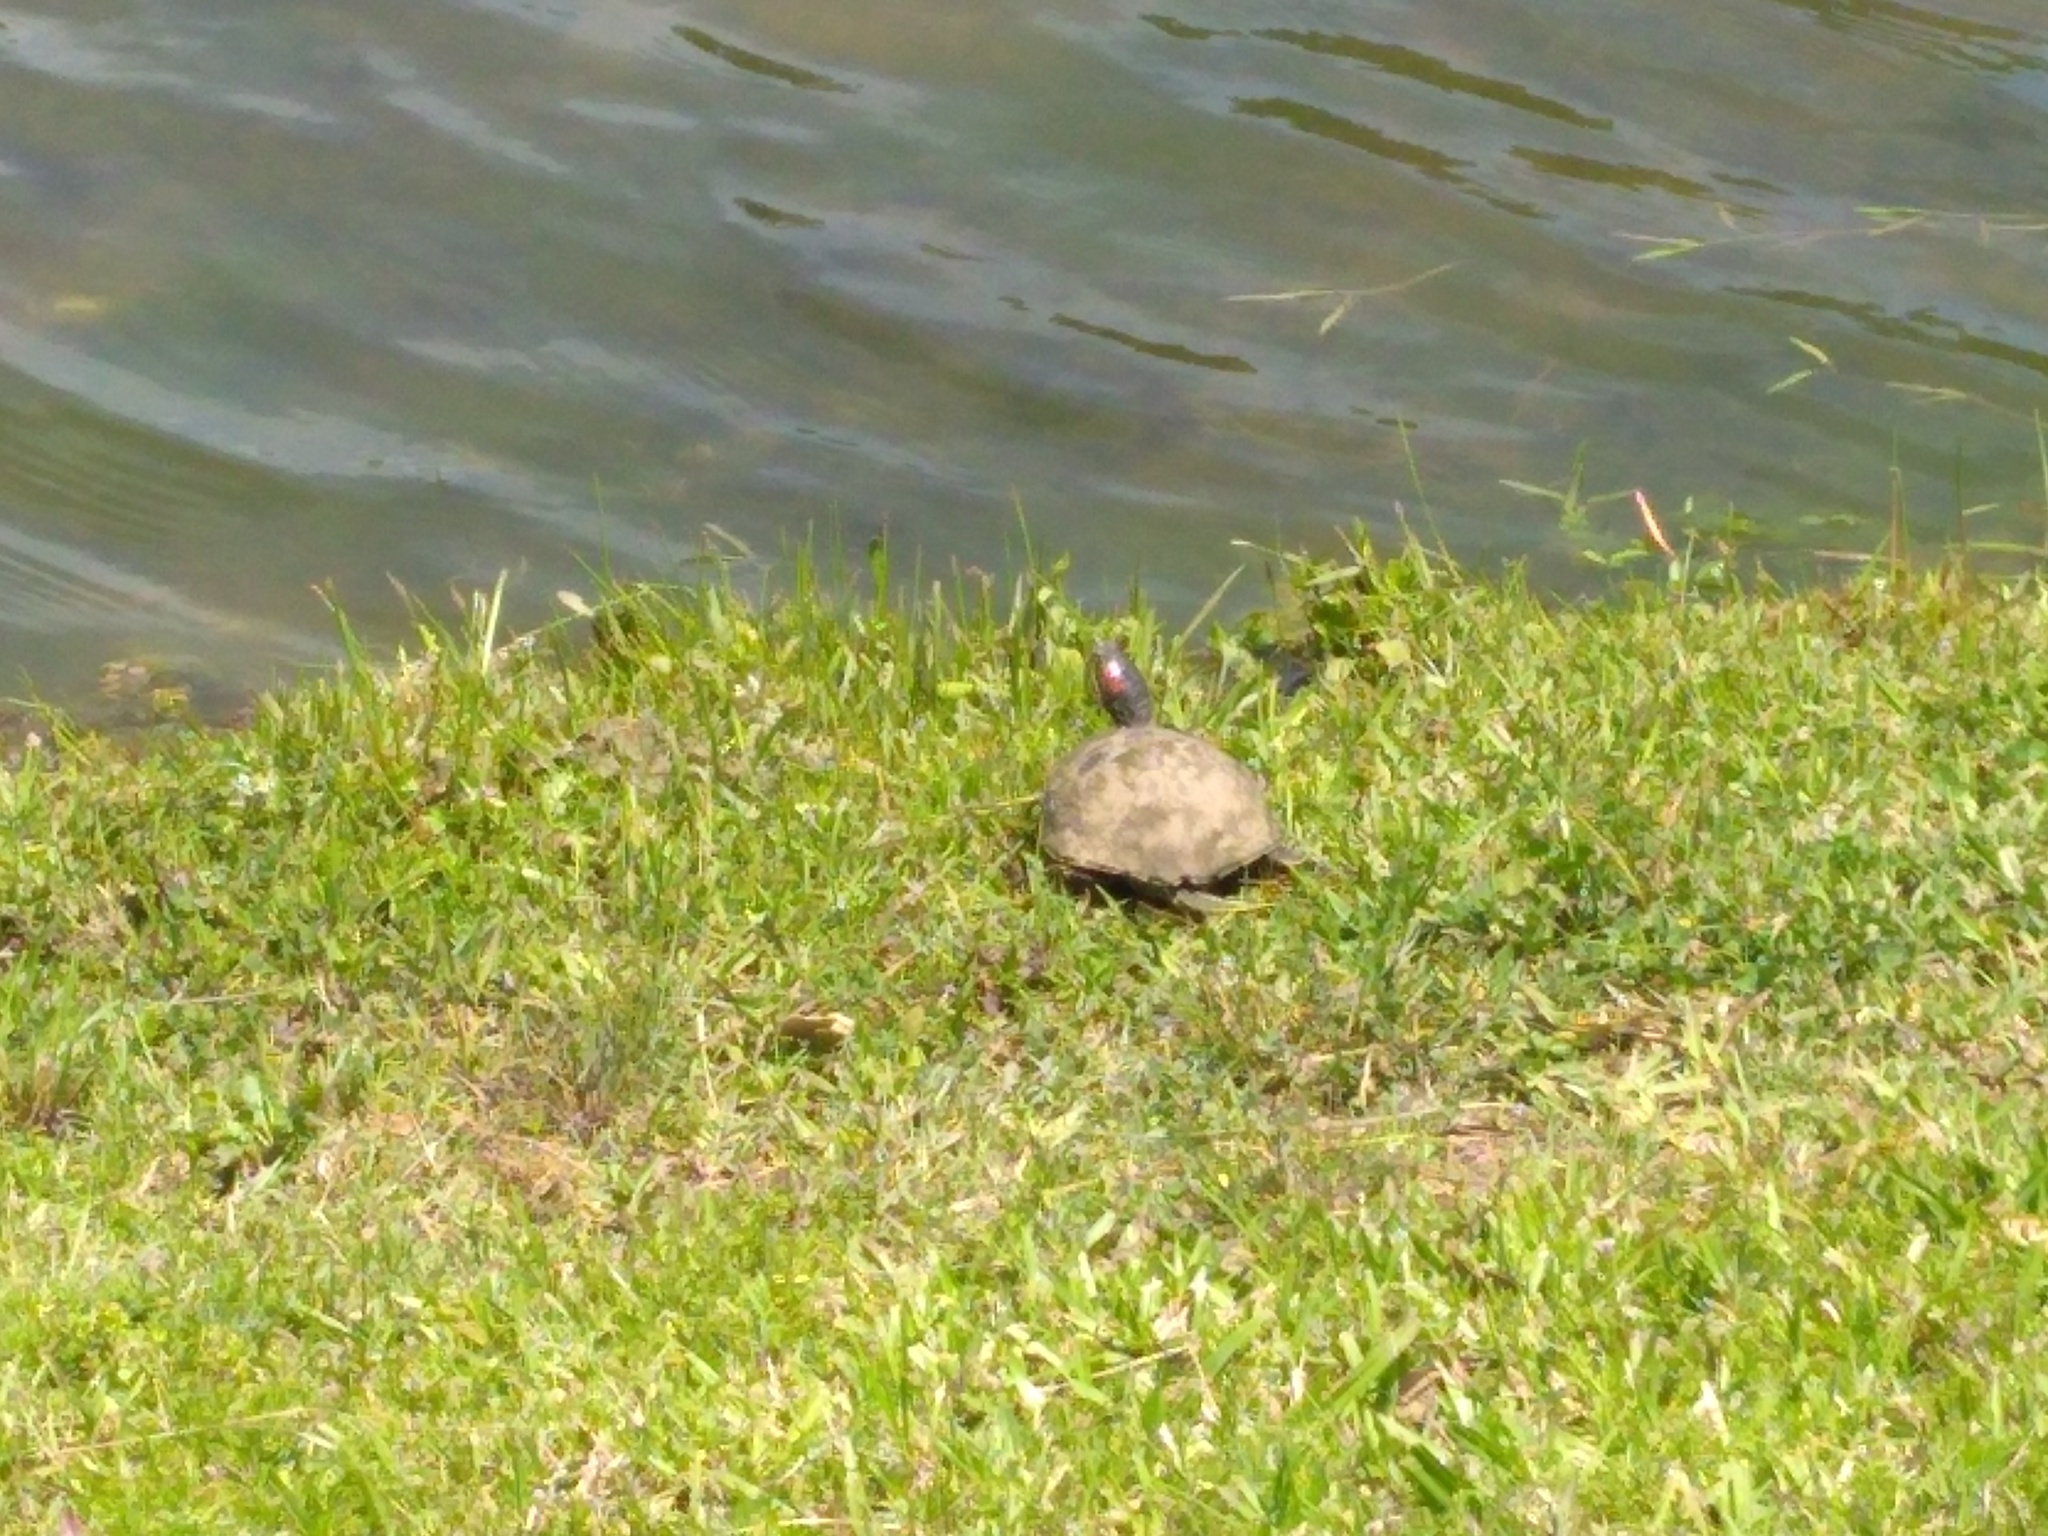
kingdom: Animalia
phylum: Chordata
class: Testudines
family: Emydidae
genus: Trachemys
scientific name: Trachemys scripta
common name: Slider
